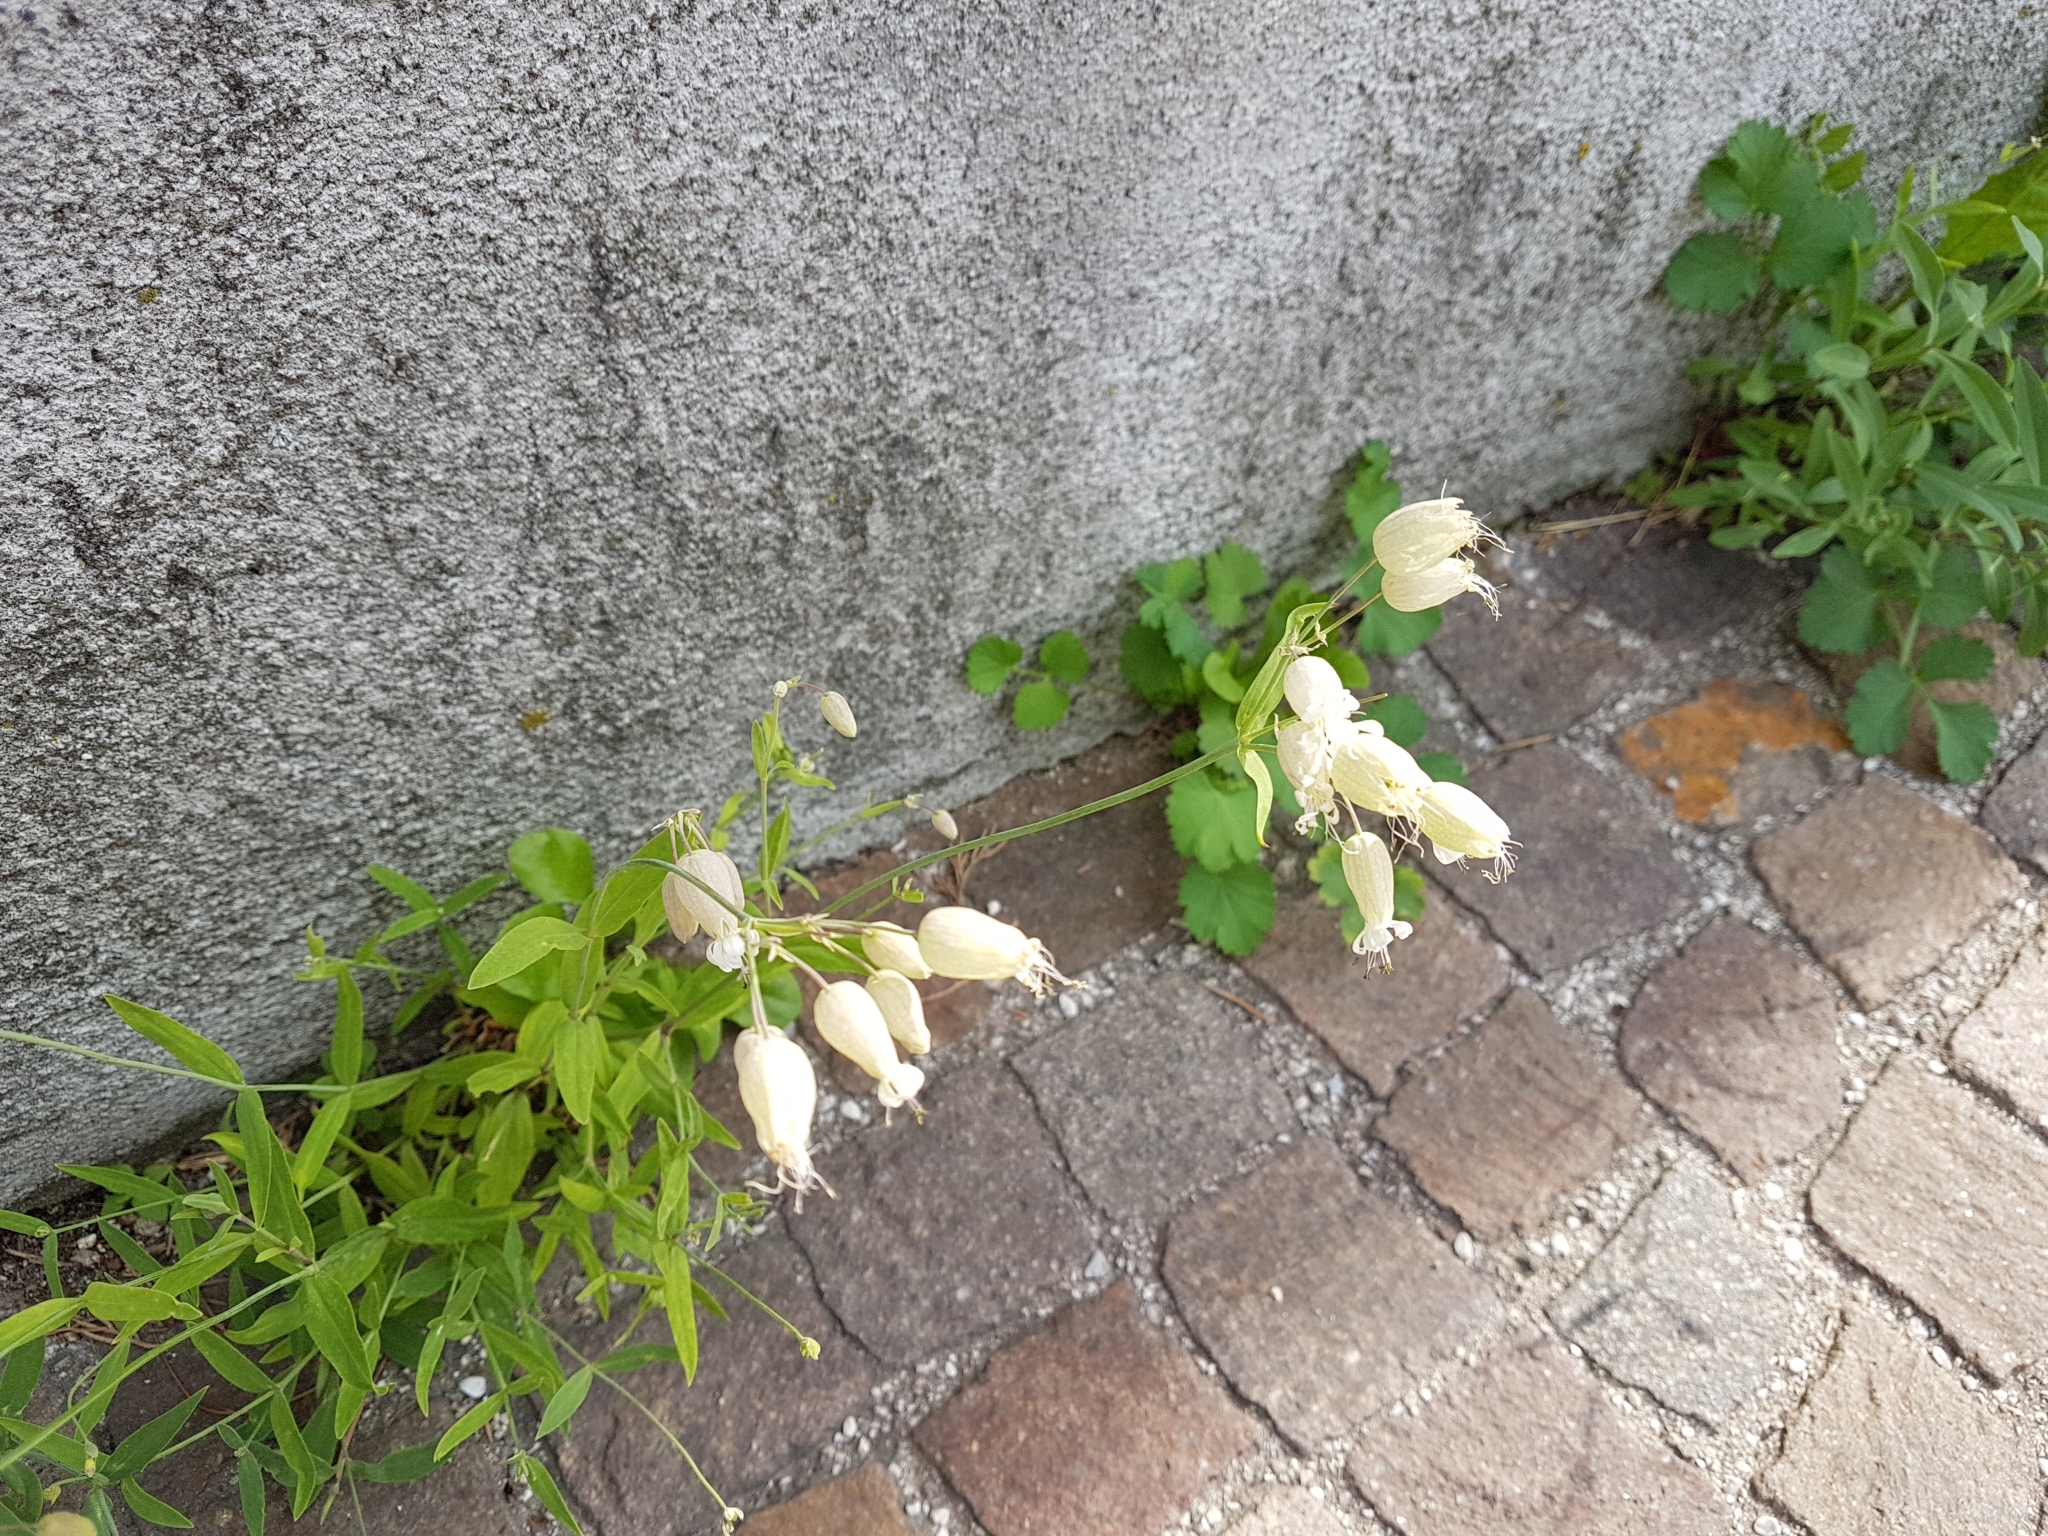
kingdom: Plantae
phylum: Tracheophyta
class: Magnoliopsida
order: Caryophyllales
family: Caryophyllaceae
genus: Silene
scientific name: Silene vulgaris
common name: Bladder campion
